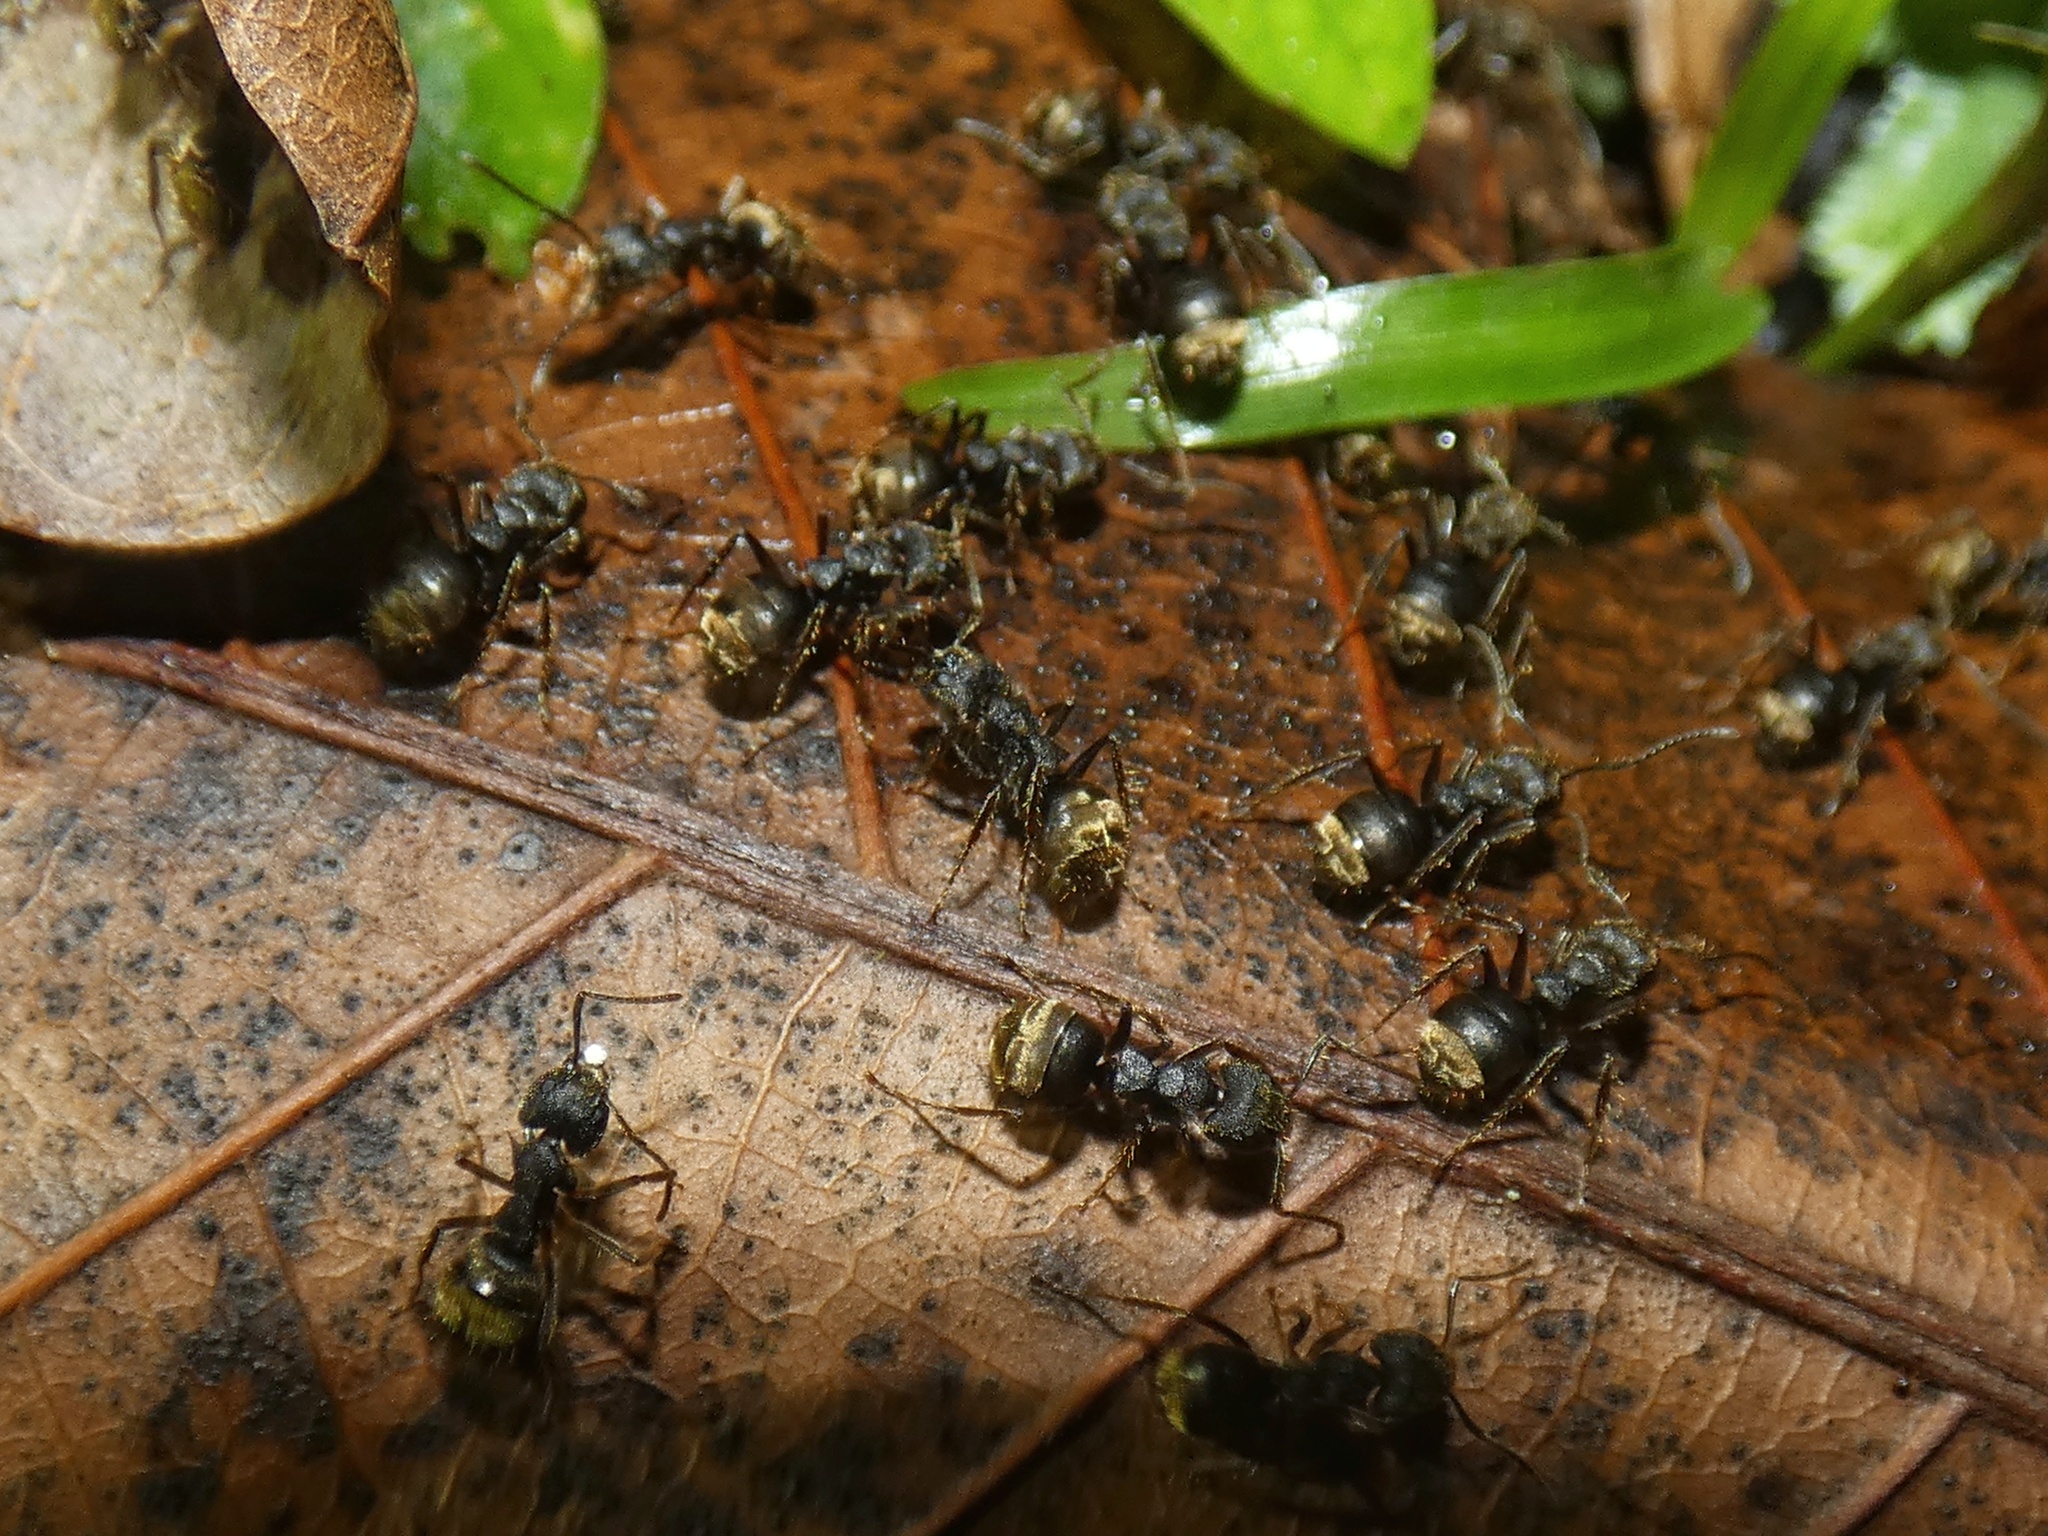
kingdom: Animalia
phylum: Arthropoda
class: Insecta
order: Hymenoptera
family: Formicidae
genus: Dolichoderus
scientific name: Dolichoderus bispinosus
